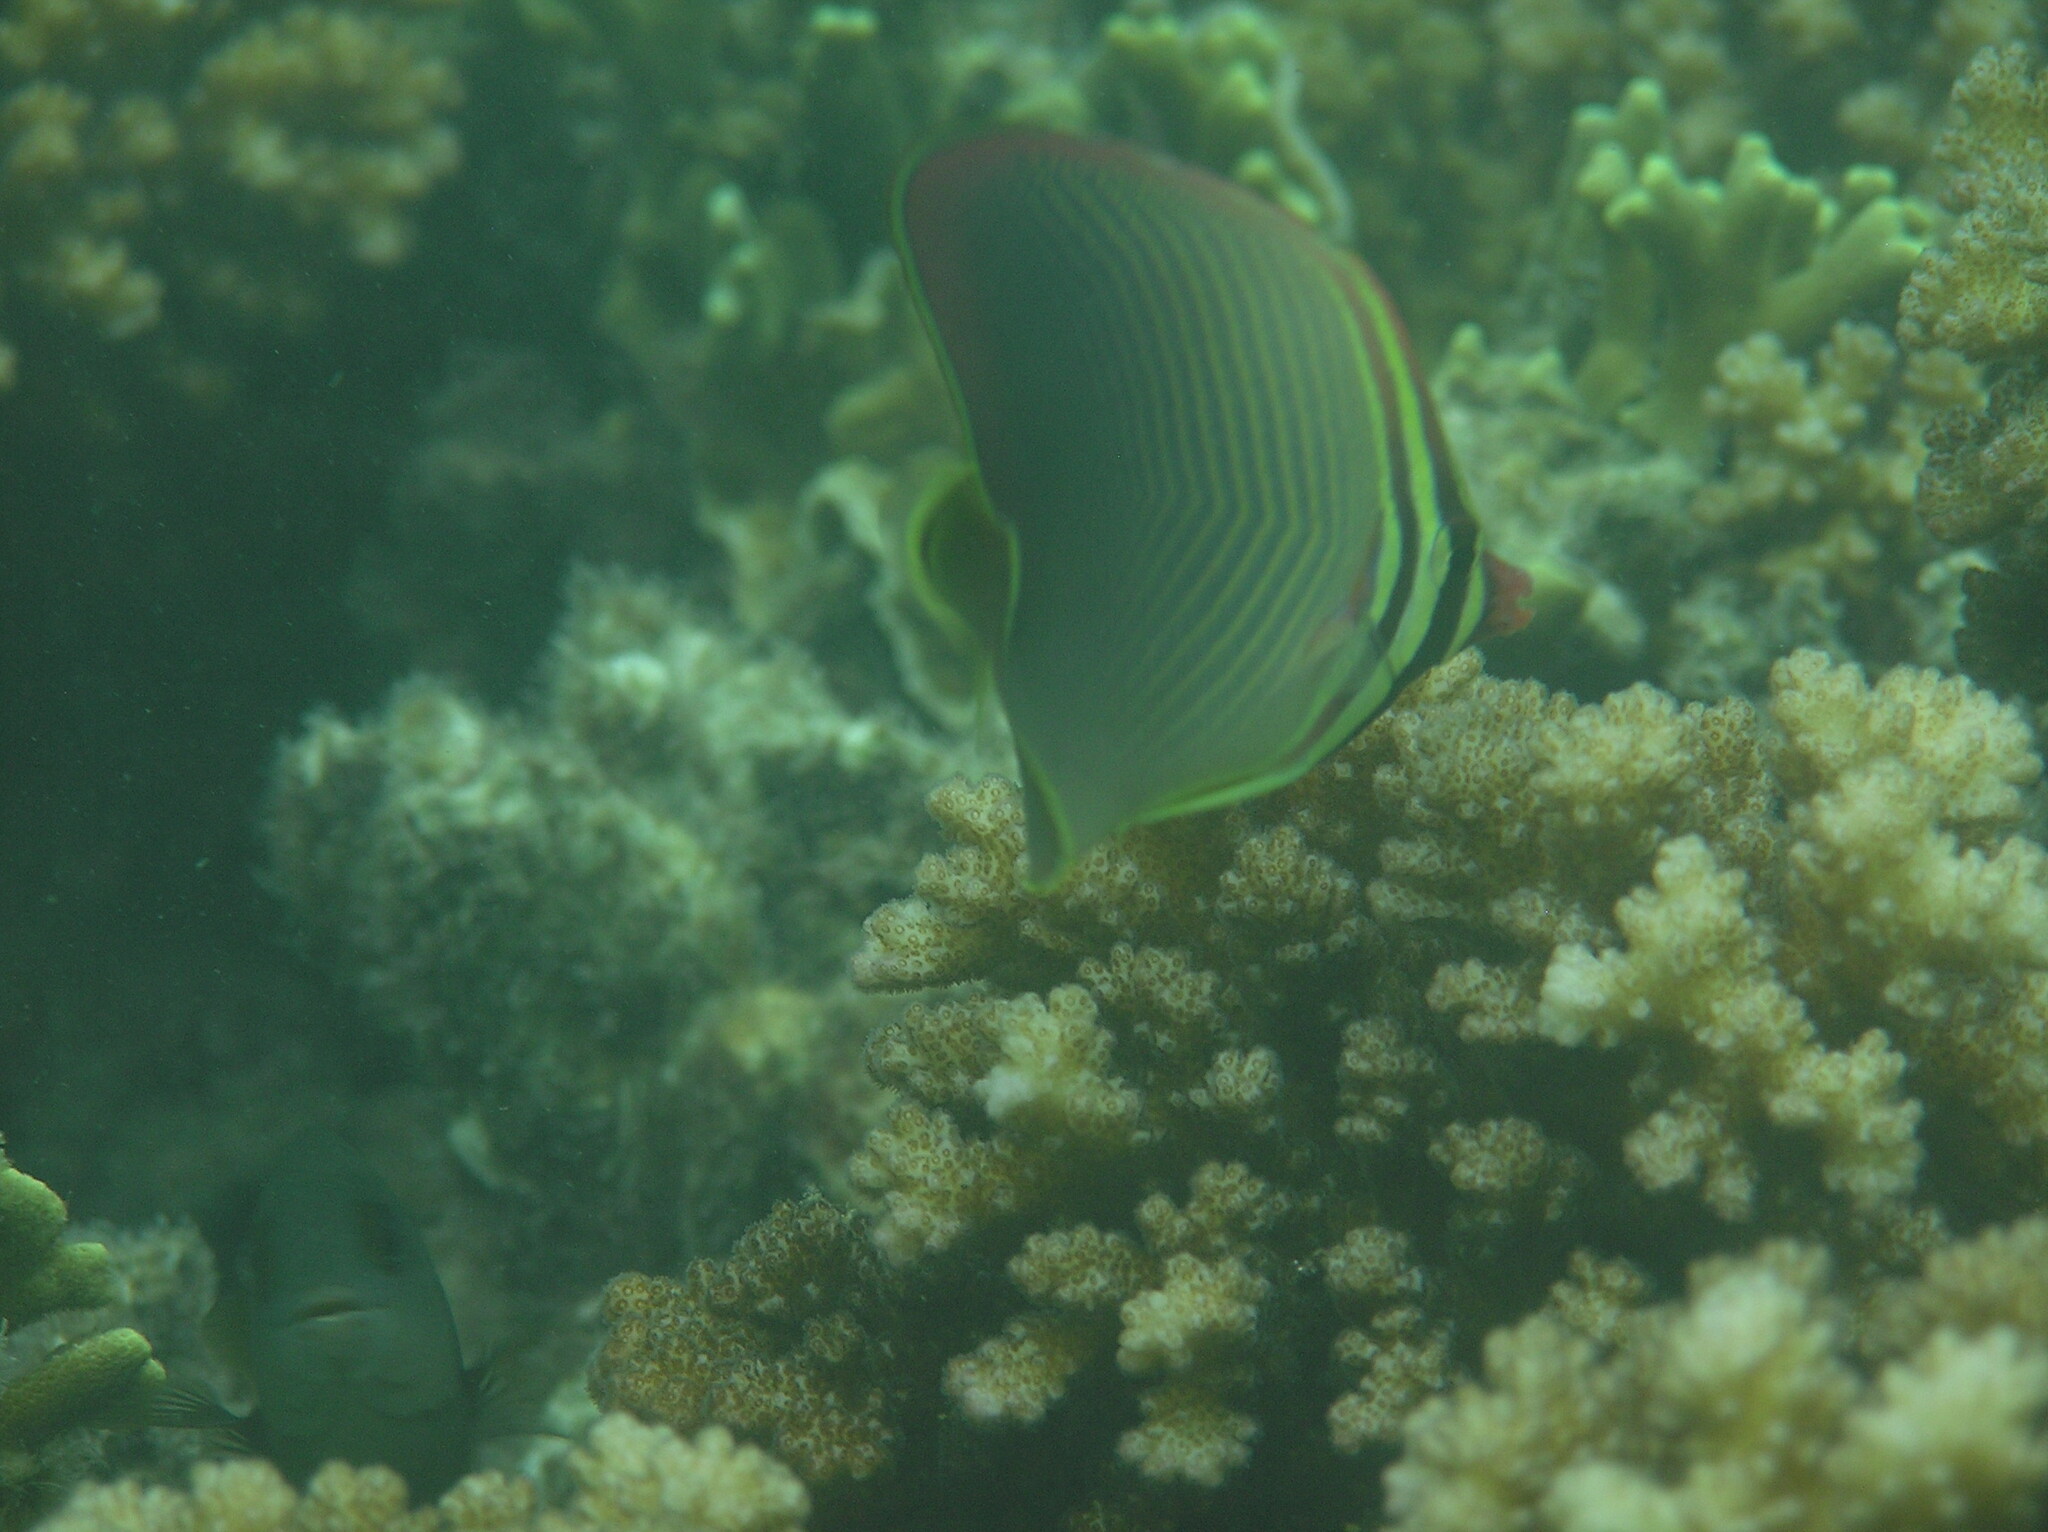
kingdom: Animalia
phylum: Chordata
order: Perciformes
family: Chaetodontidae
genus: Chaetodon
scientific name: Chaetodon baronessa
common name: Triangular butterflyfish
